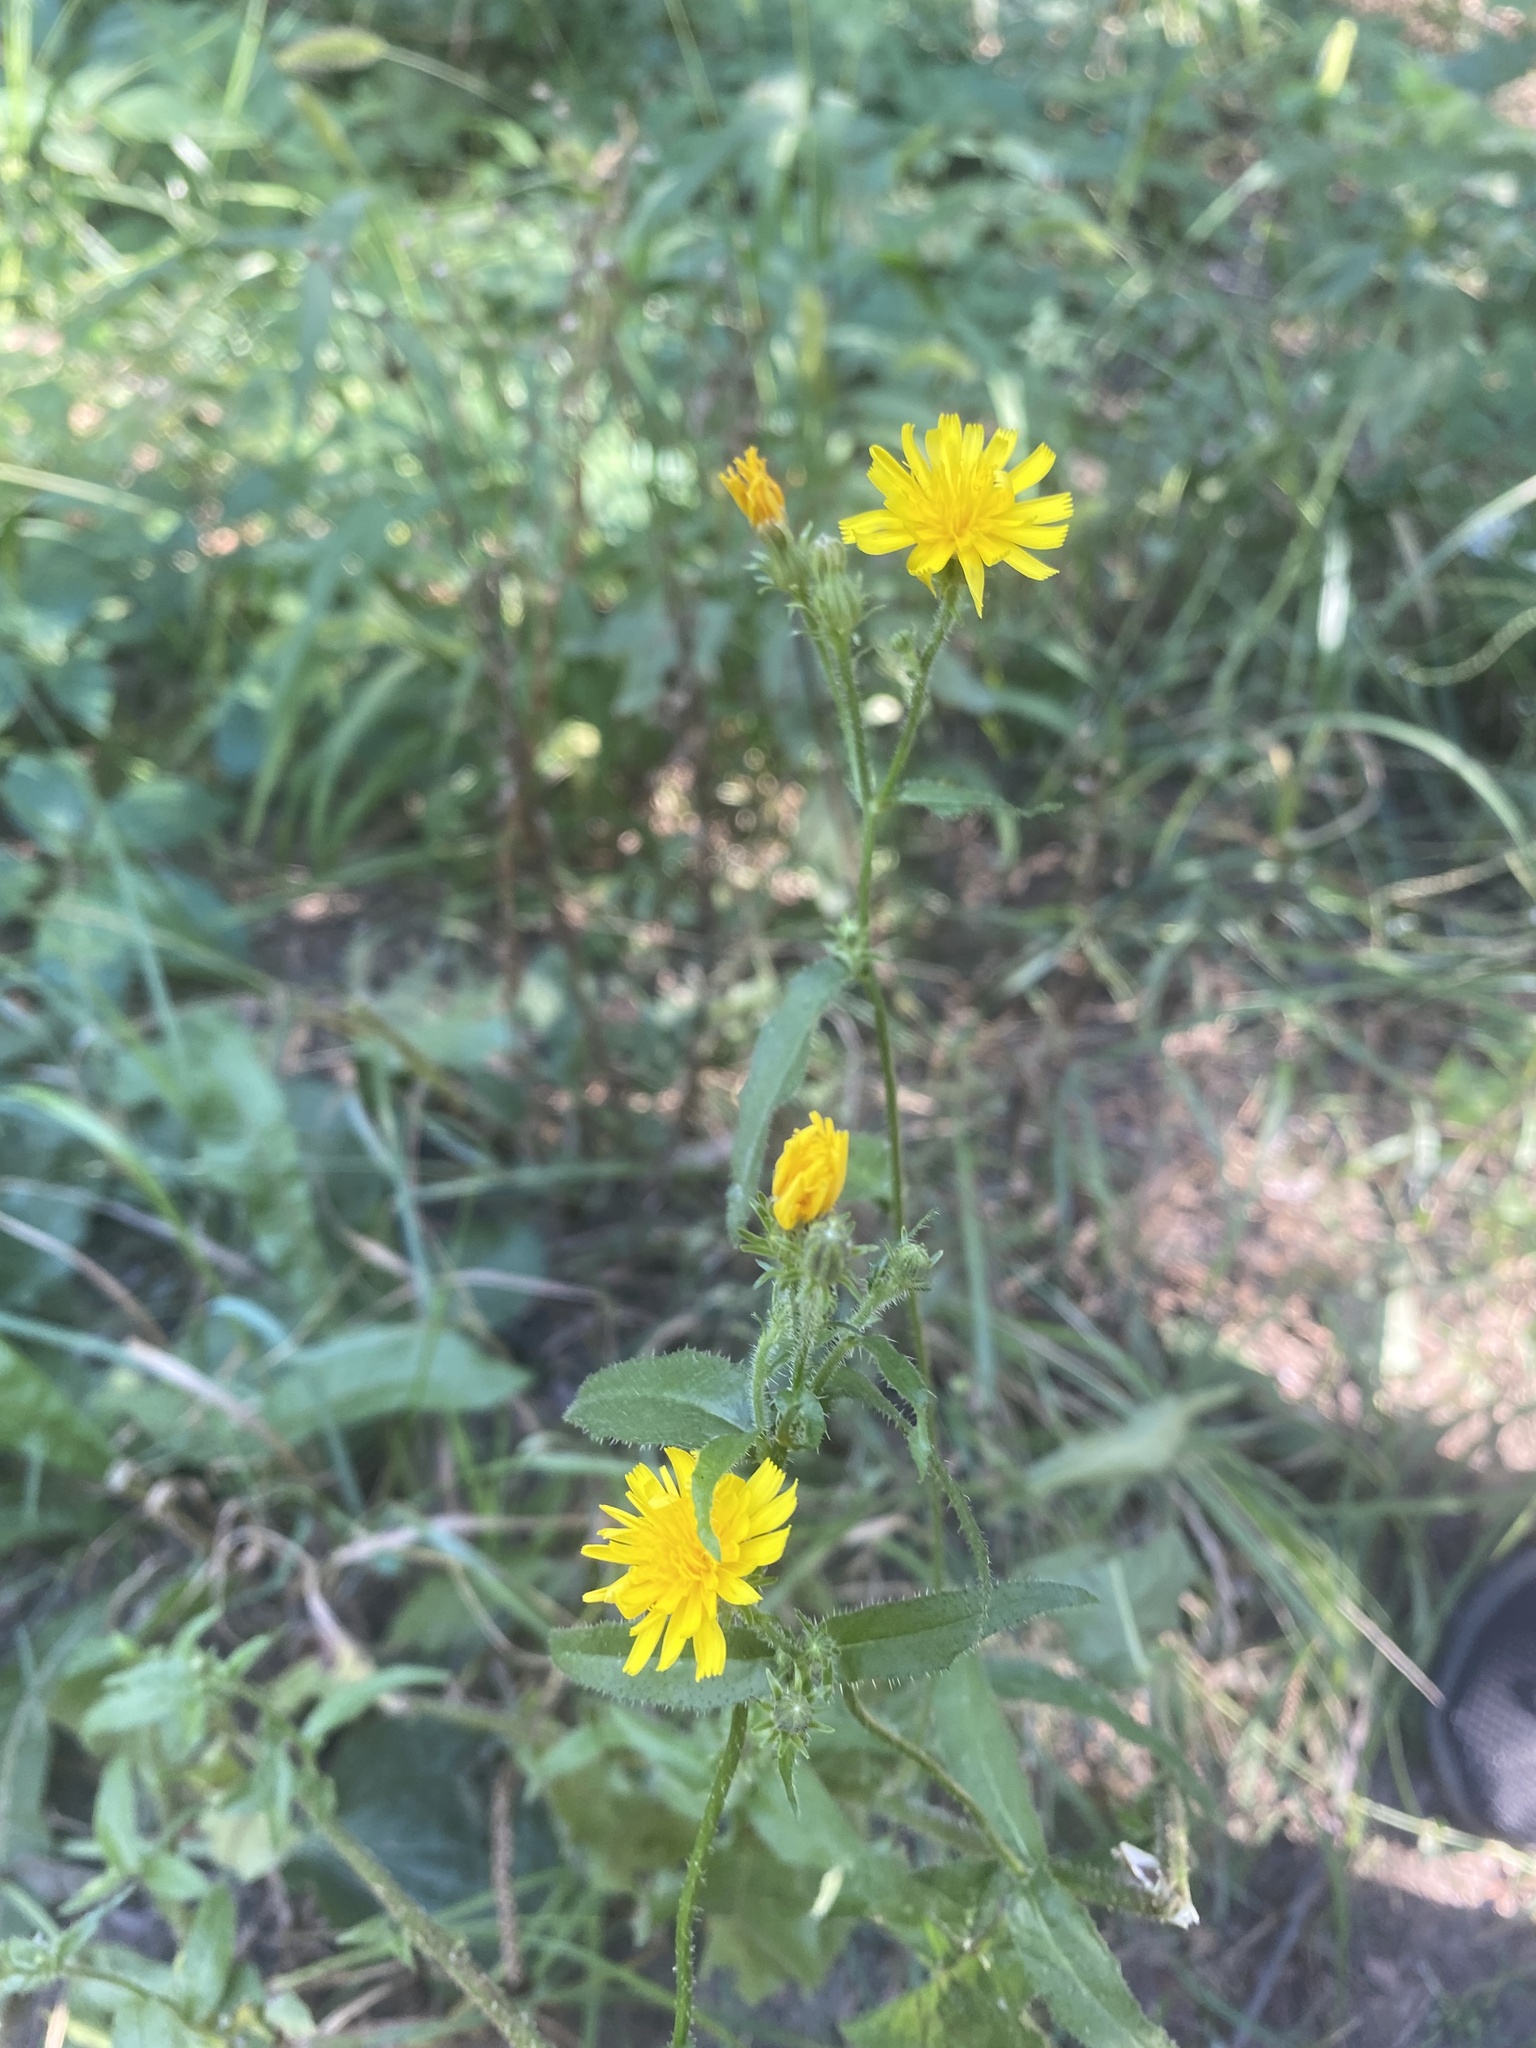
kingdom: Plantae
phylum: Tracheophyta
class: Magnoliopsida
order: Asterales
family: Asteraceae
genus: Picris
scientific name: Picris hieracioides
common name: Hawkweed oxtongue
